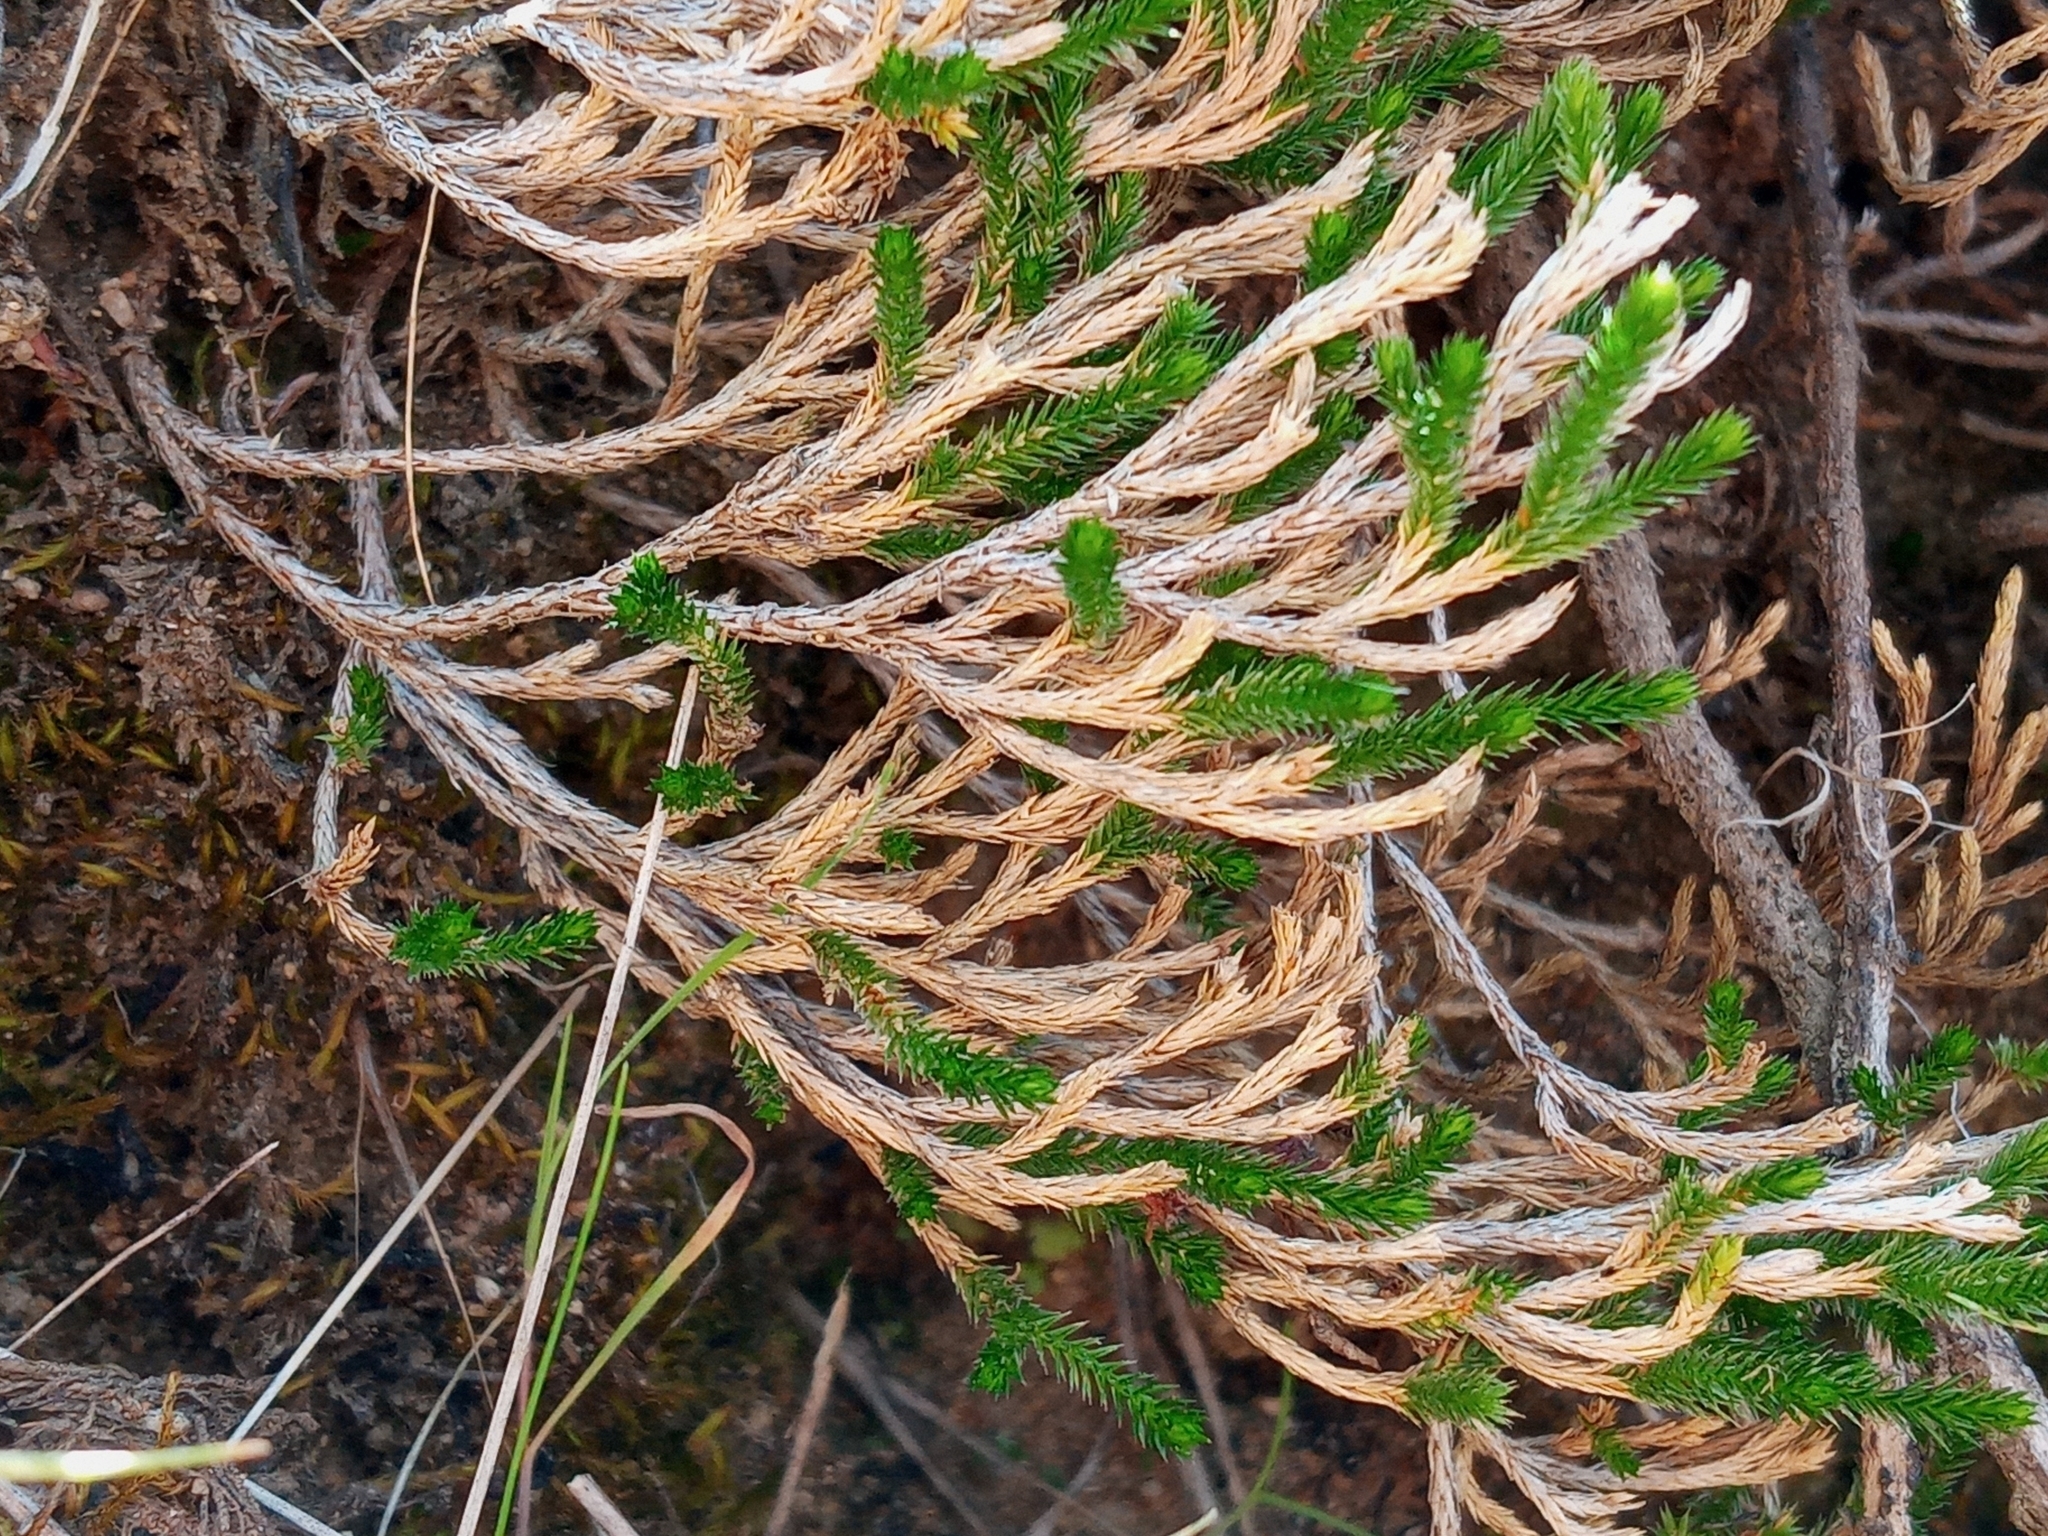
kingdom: Plantae
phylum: Tracheophyta
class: Lycopodiopsida
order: Selaginellales
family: Selaginellaceae
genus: Selaginella
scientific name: Selaginella bigelovii
